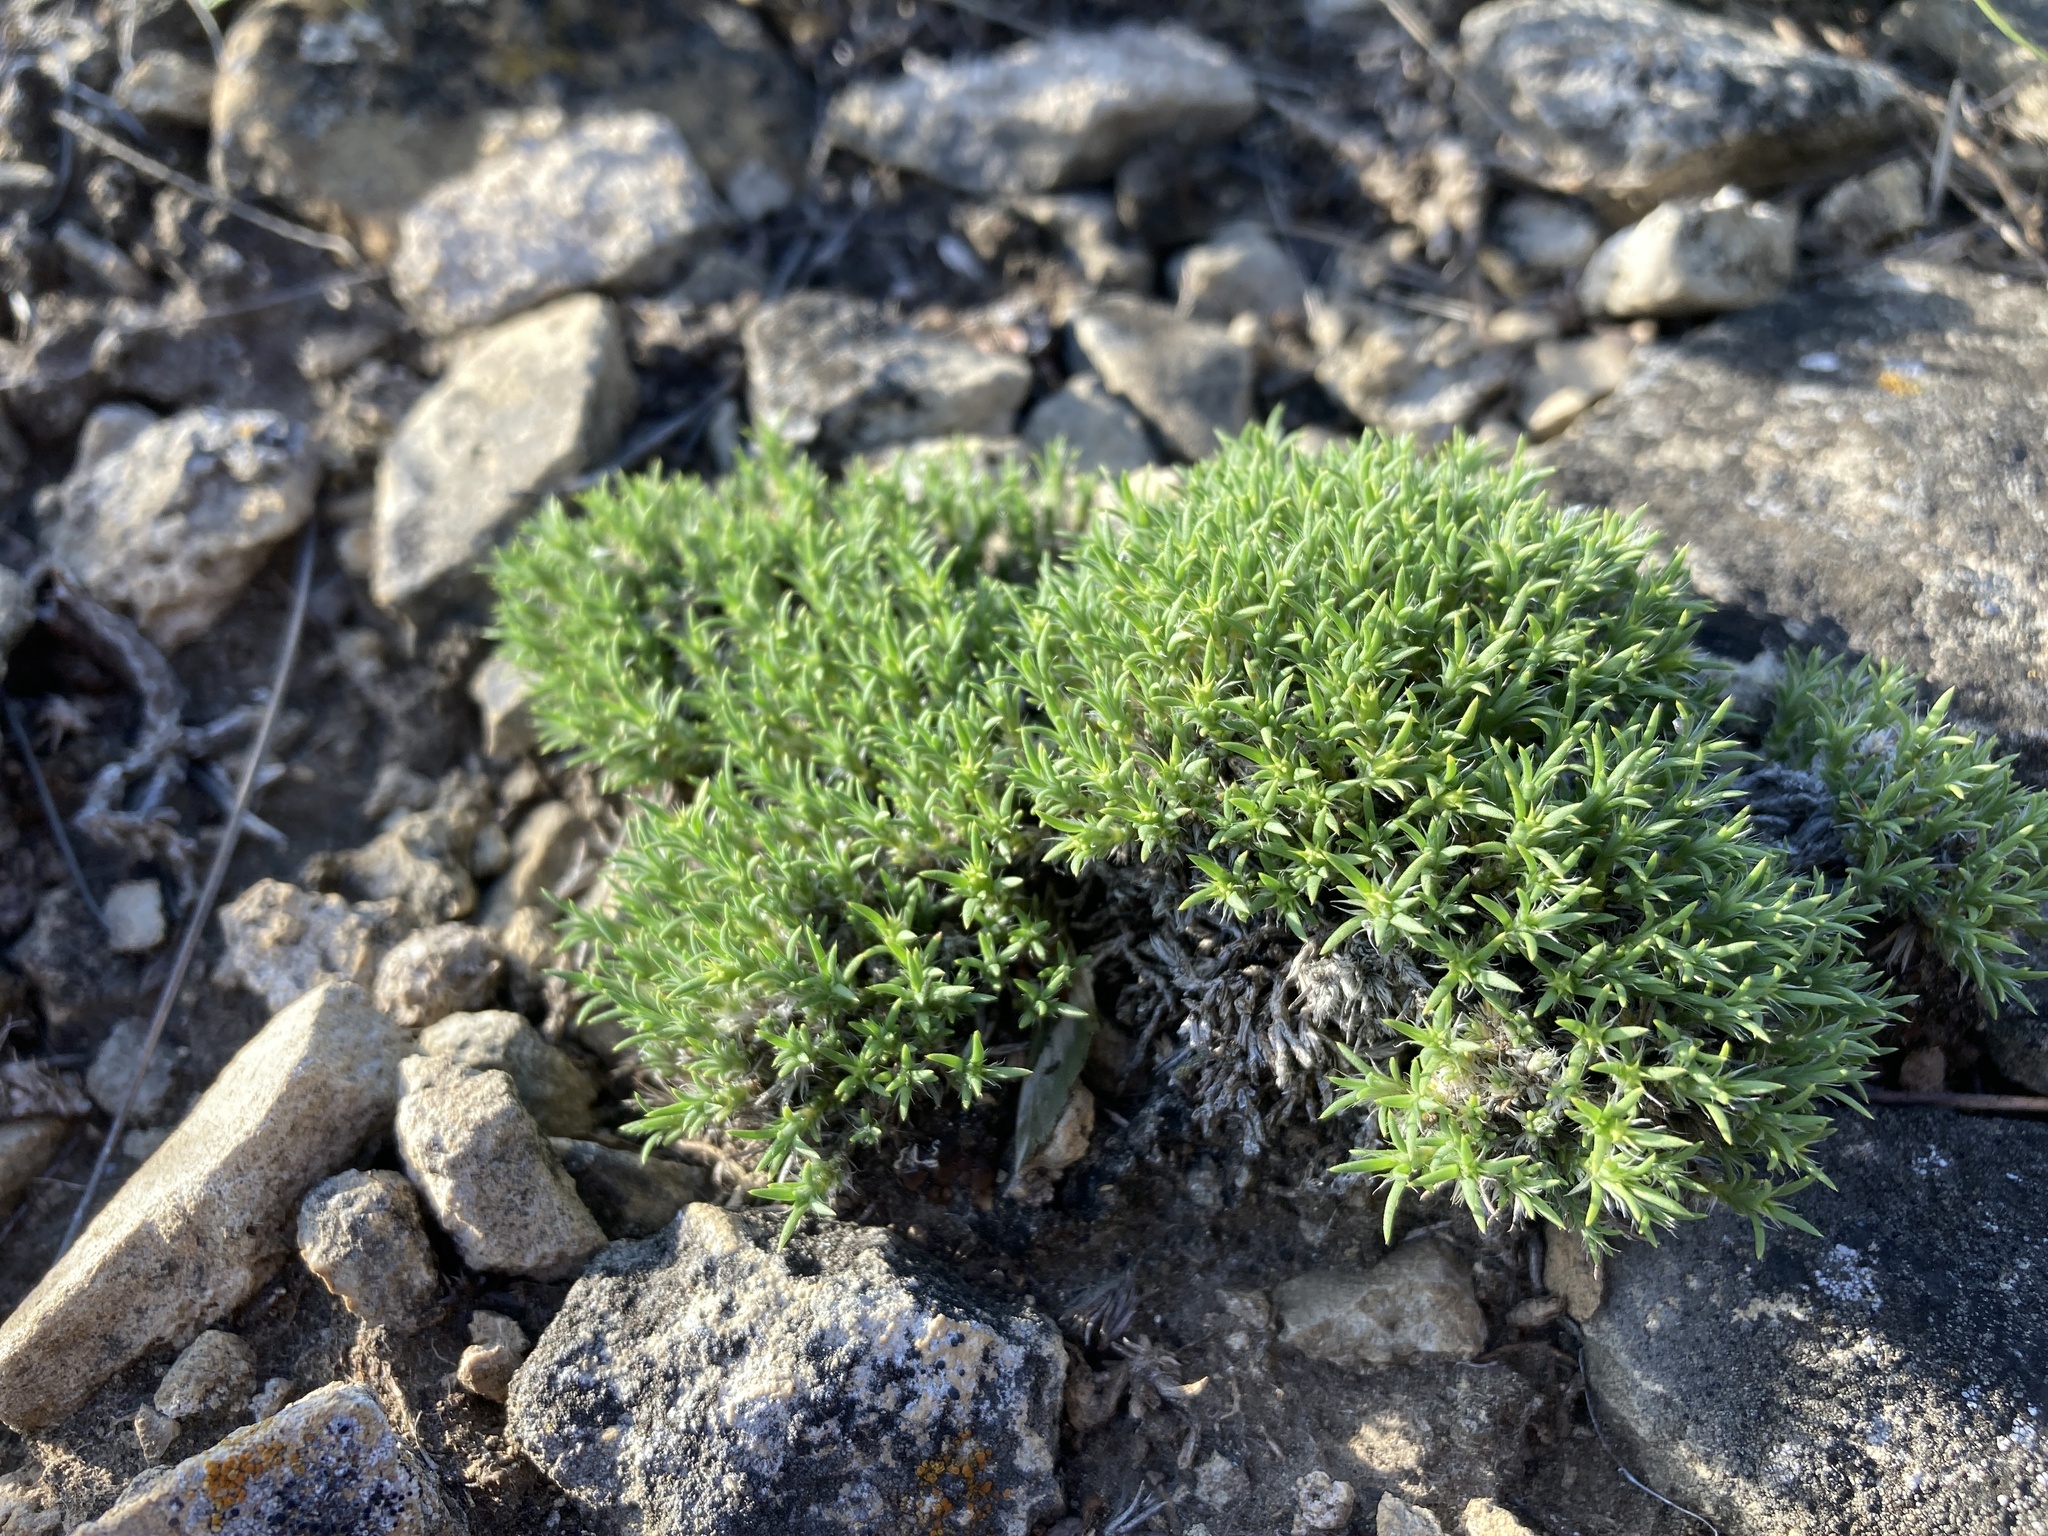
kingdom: Plantae
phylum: Tracheophyta
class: Magnoliopsida
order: Caryophyllales
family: Caryophyllaceae
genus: Paronychia
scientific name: Paronychia sessiliflora
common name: Creeping nailwort
